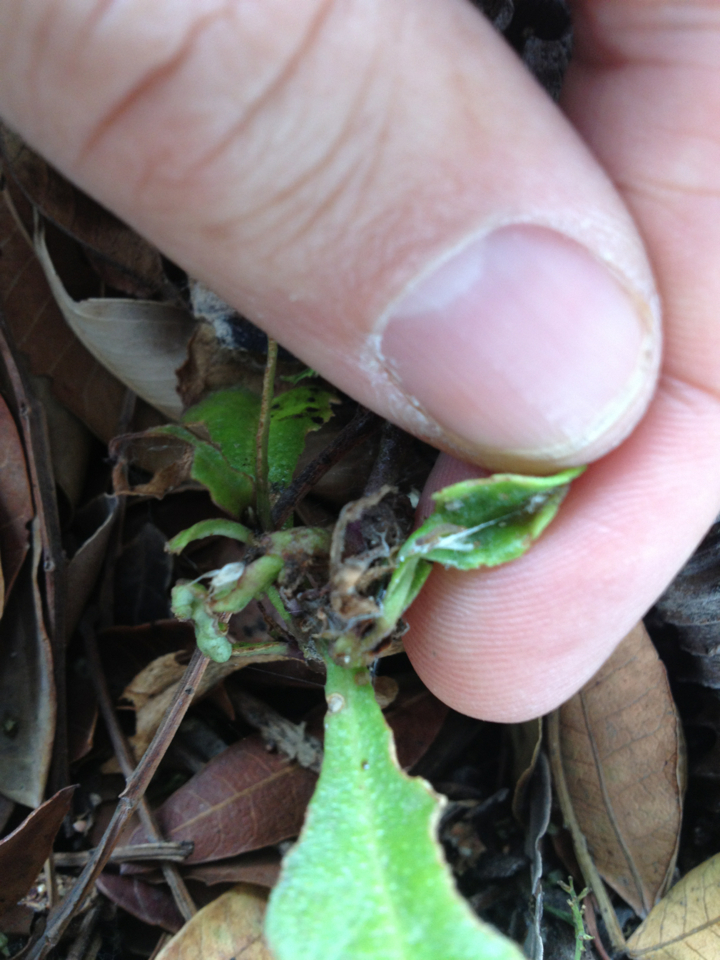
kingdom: Plantae
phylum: Tracheophyta
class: Magnoliopsida
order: Lamiales
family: Scrophulariaceae
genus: Myoporum
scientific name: Myoporum laetum
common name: Ngaio tree
